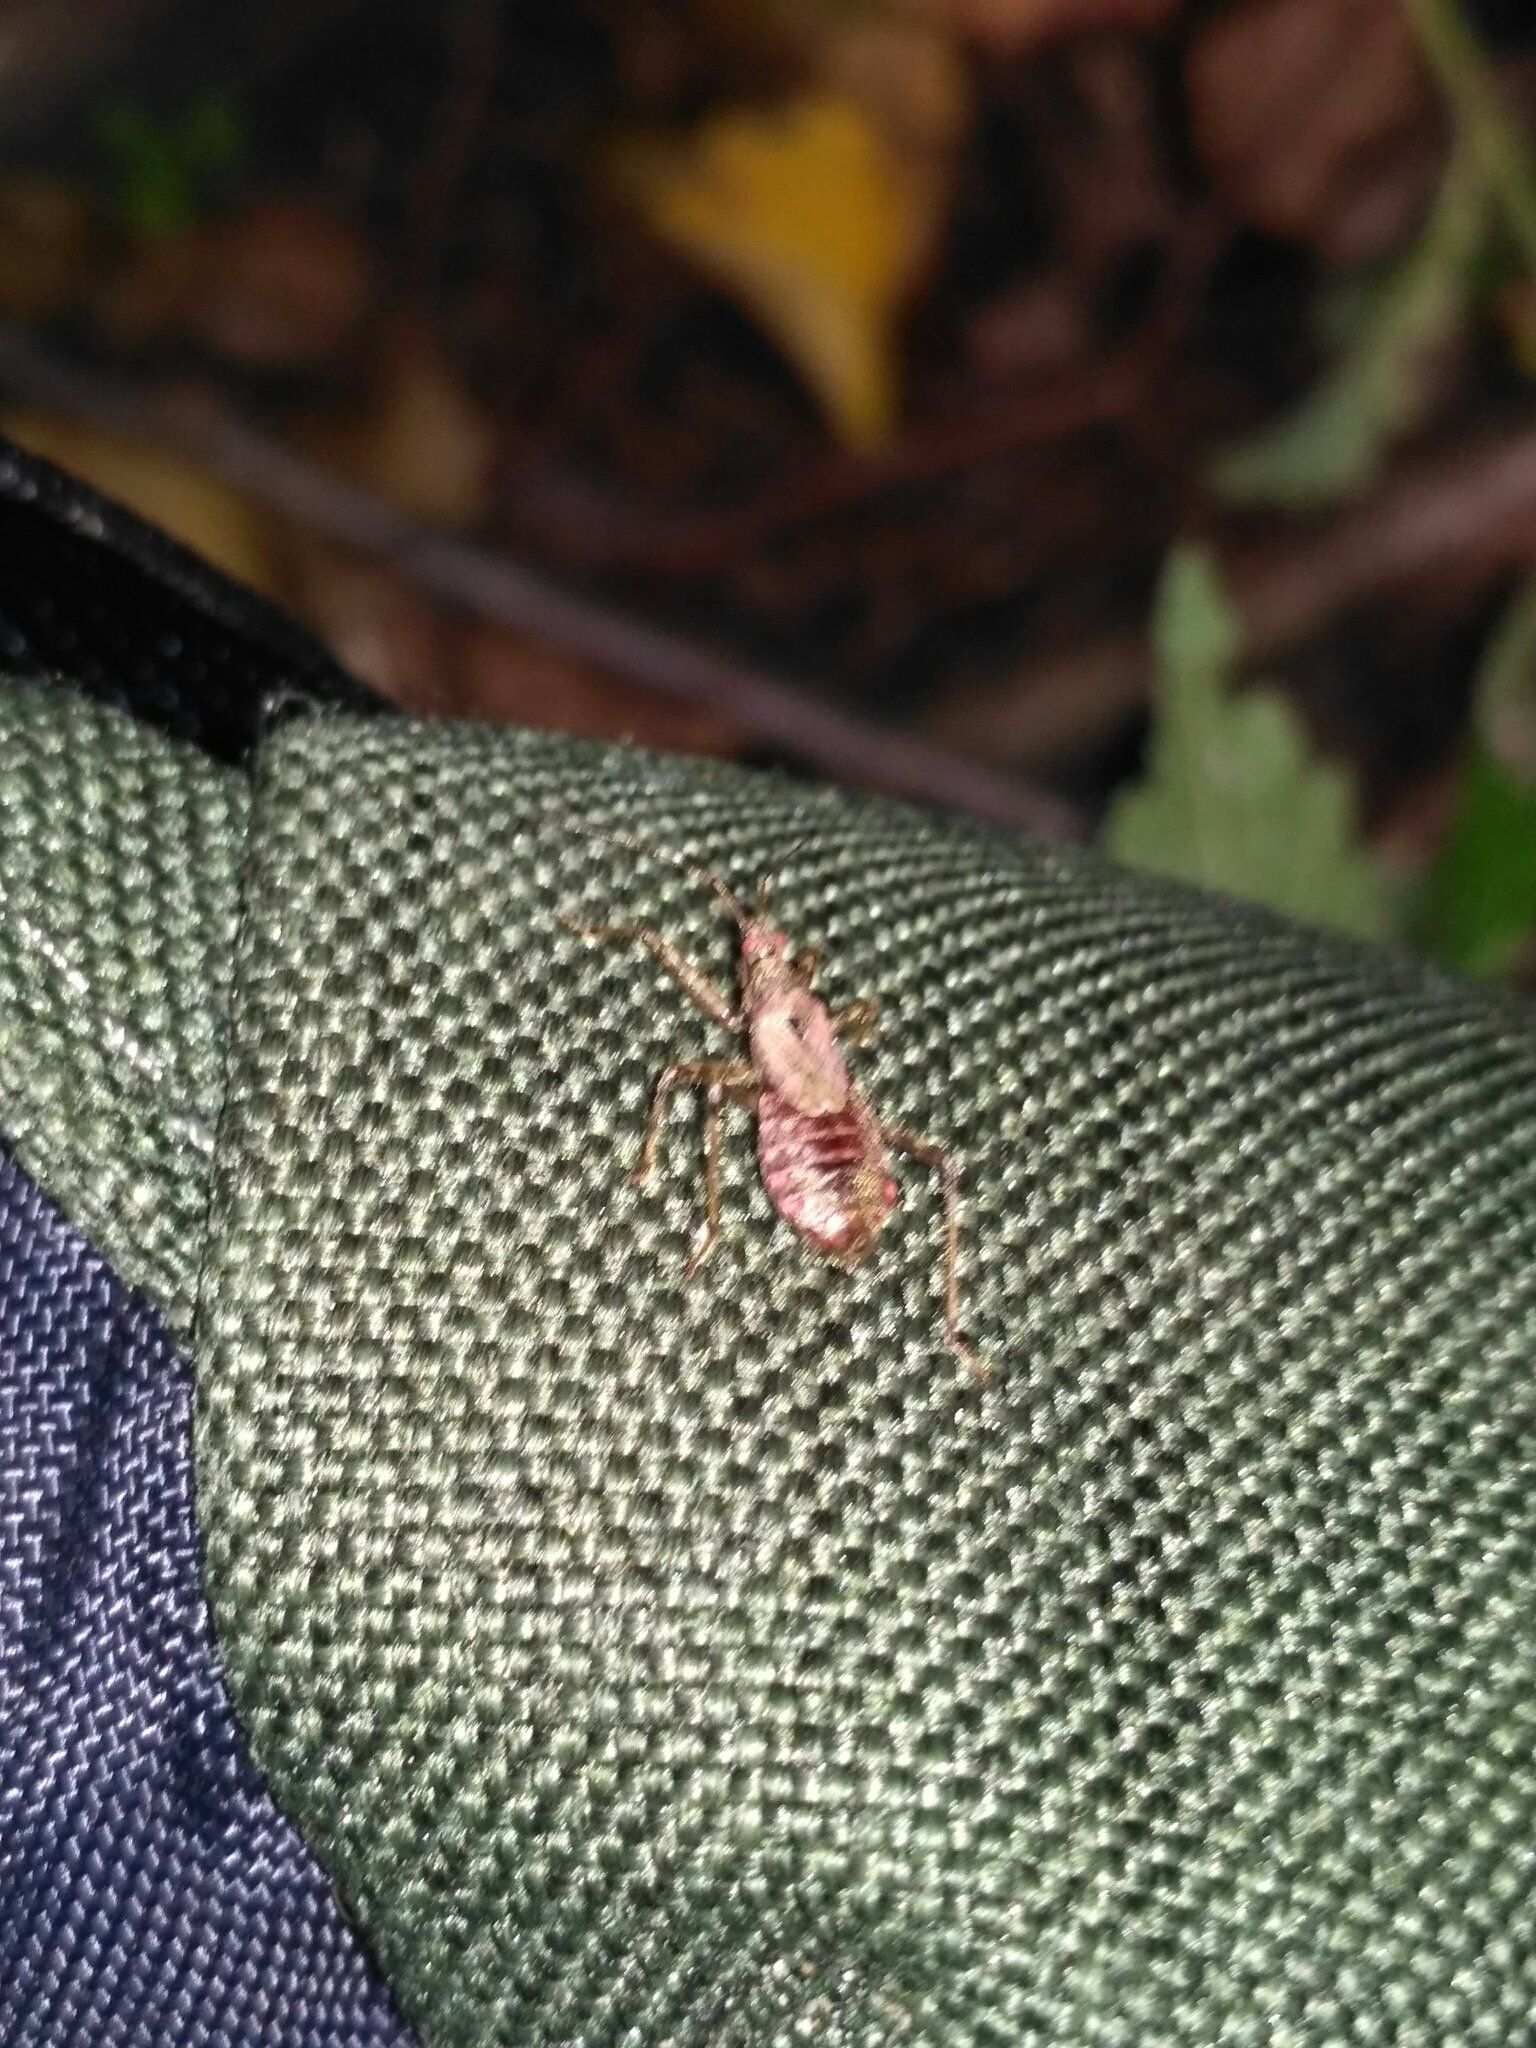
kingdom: Animalia
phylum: Arthropoda
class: Insecta
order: Hemiptera
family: Nabidae
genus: Himacerus
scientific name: Himacerus apterus
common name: Tree damsel bug
